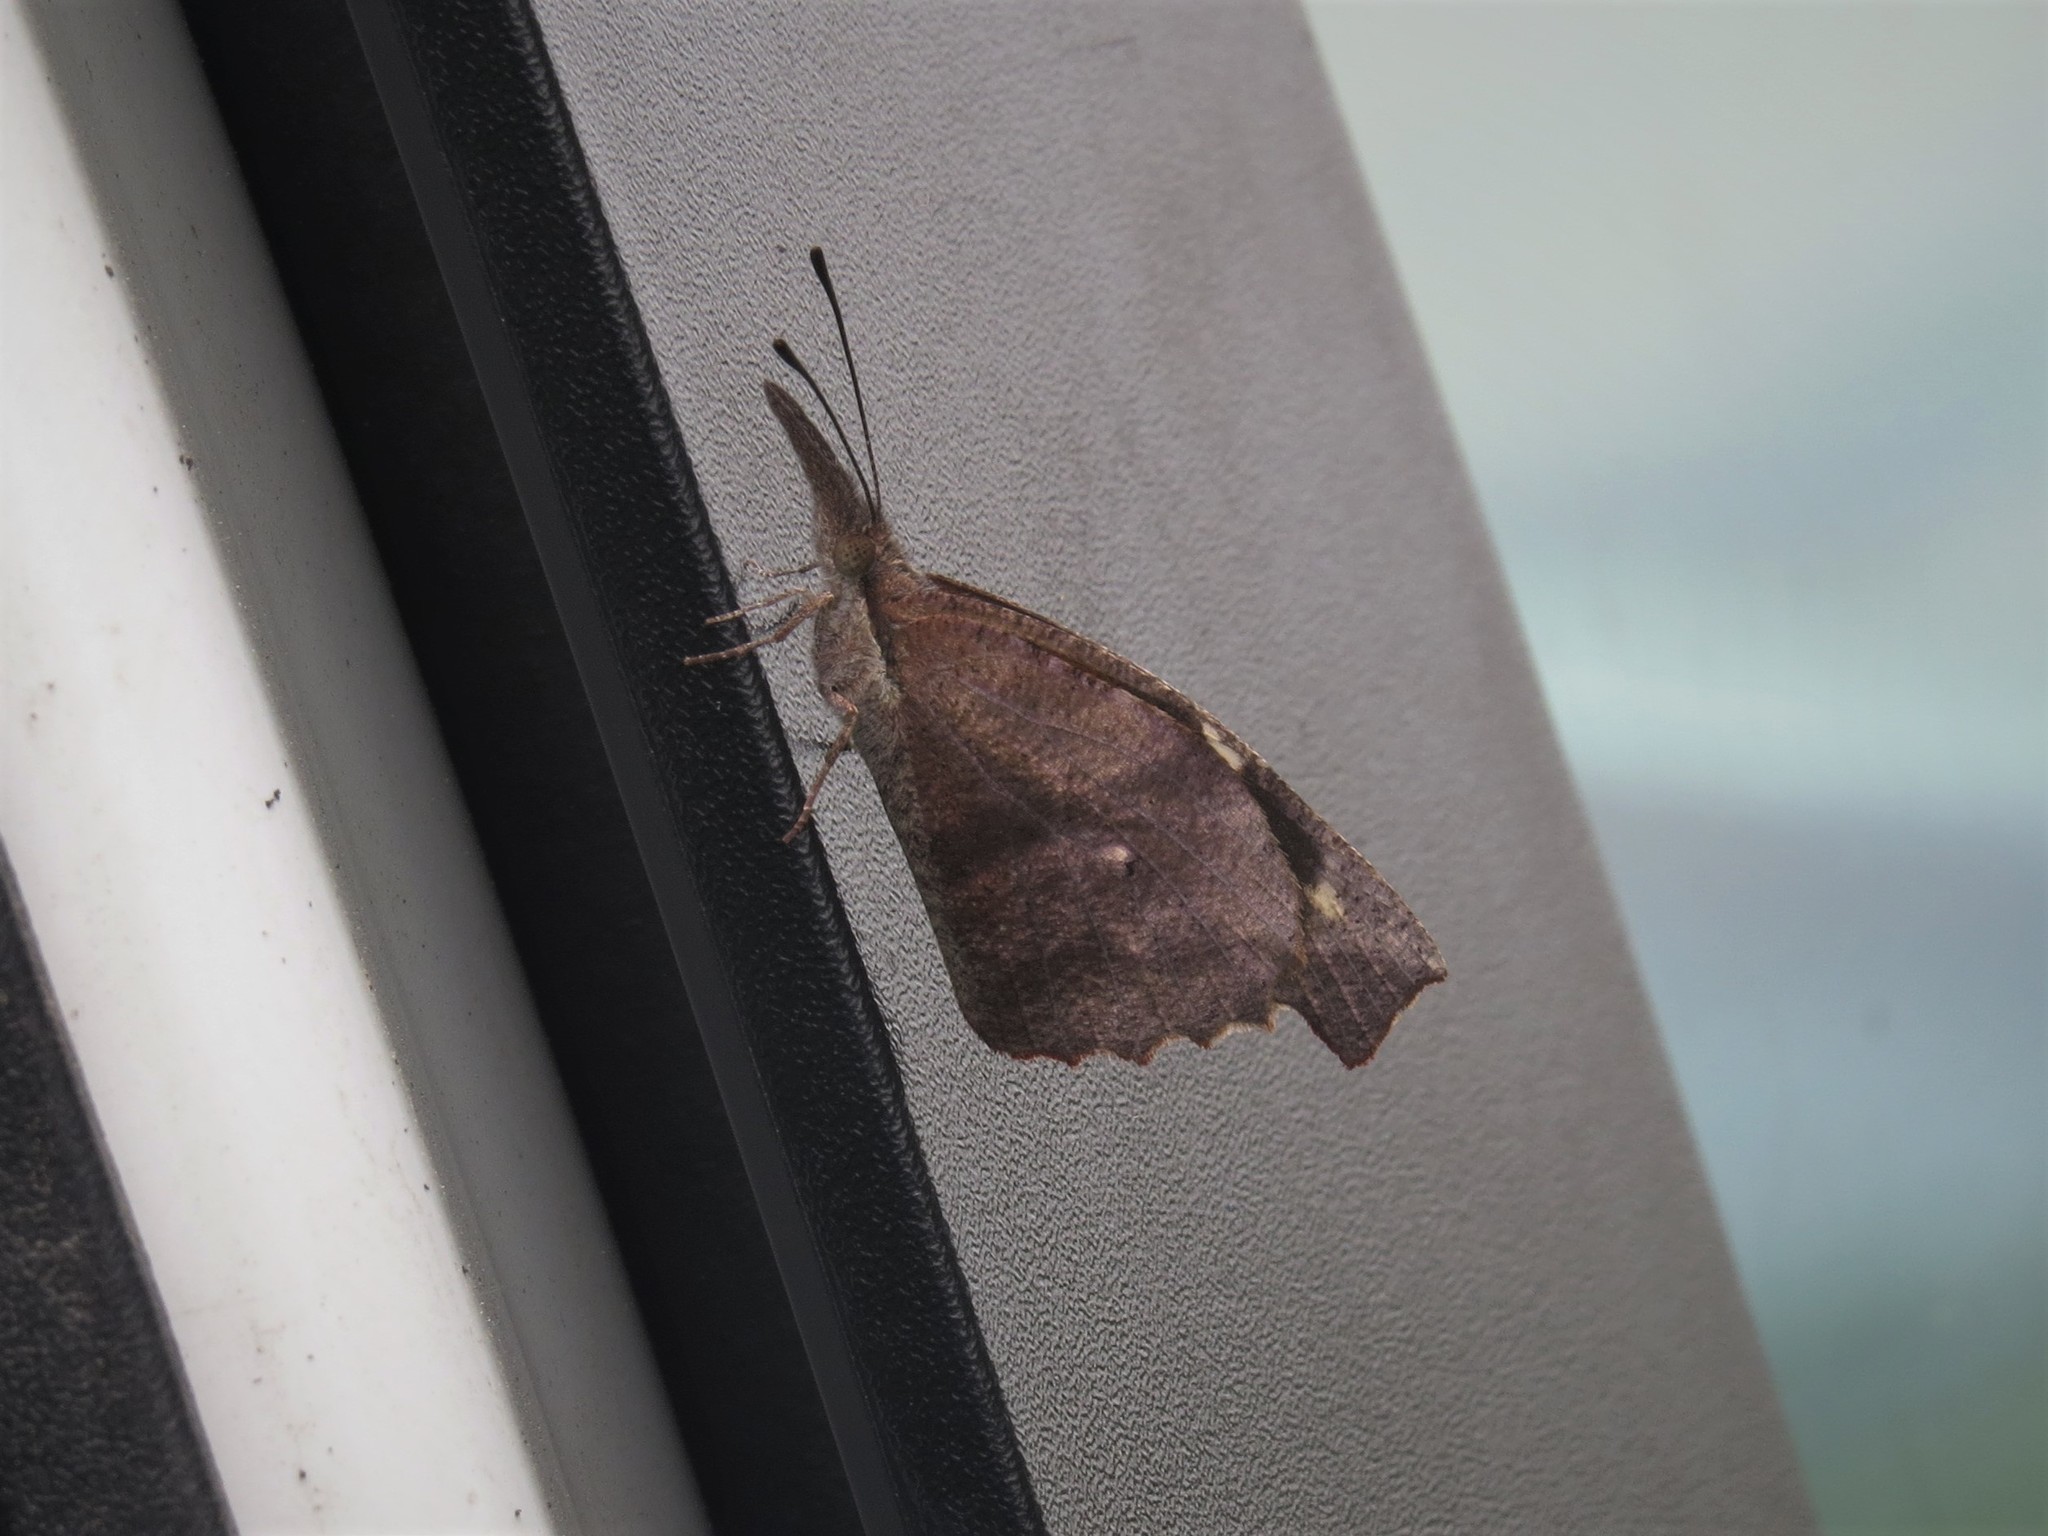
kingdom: Animalia
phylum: Arthropoda
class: Insecta
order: Lepidoptera
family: Nymphalidae
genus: Libytheana
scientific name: Libytheana carinenta
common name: American snout
